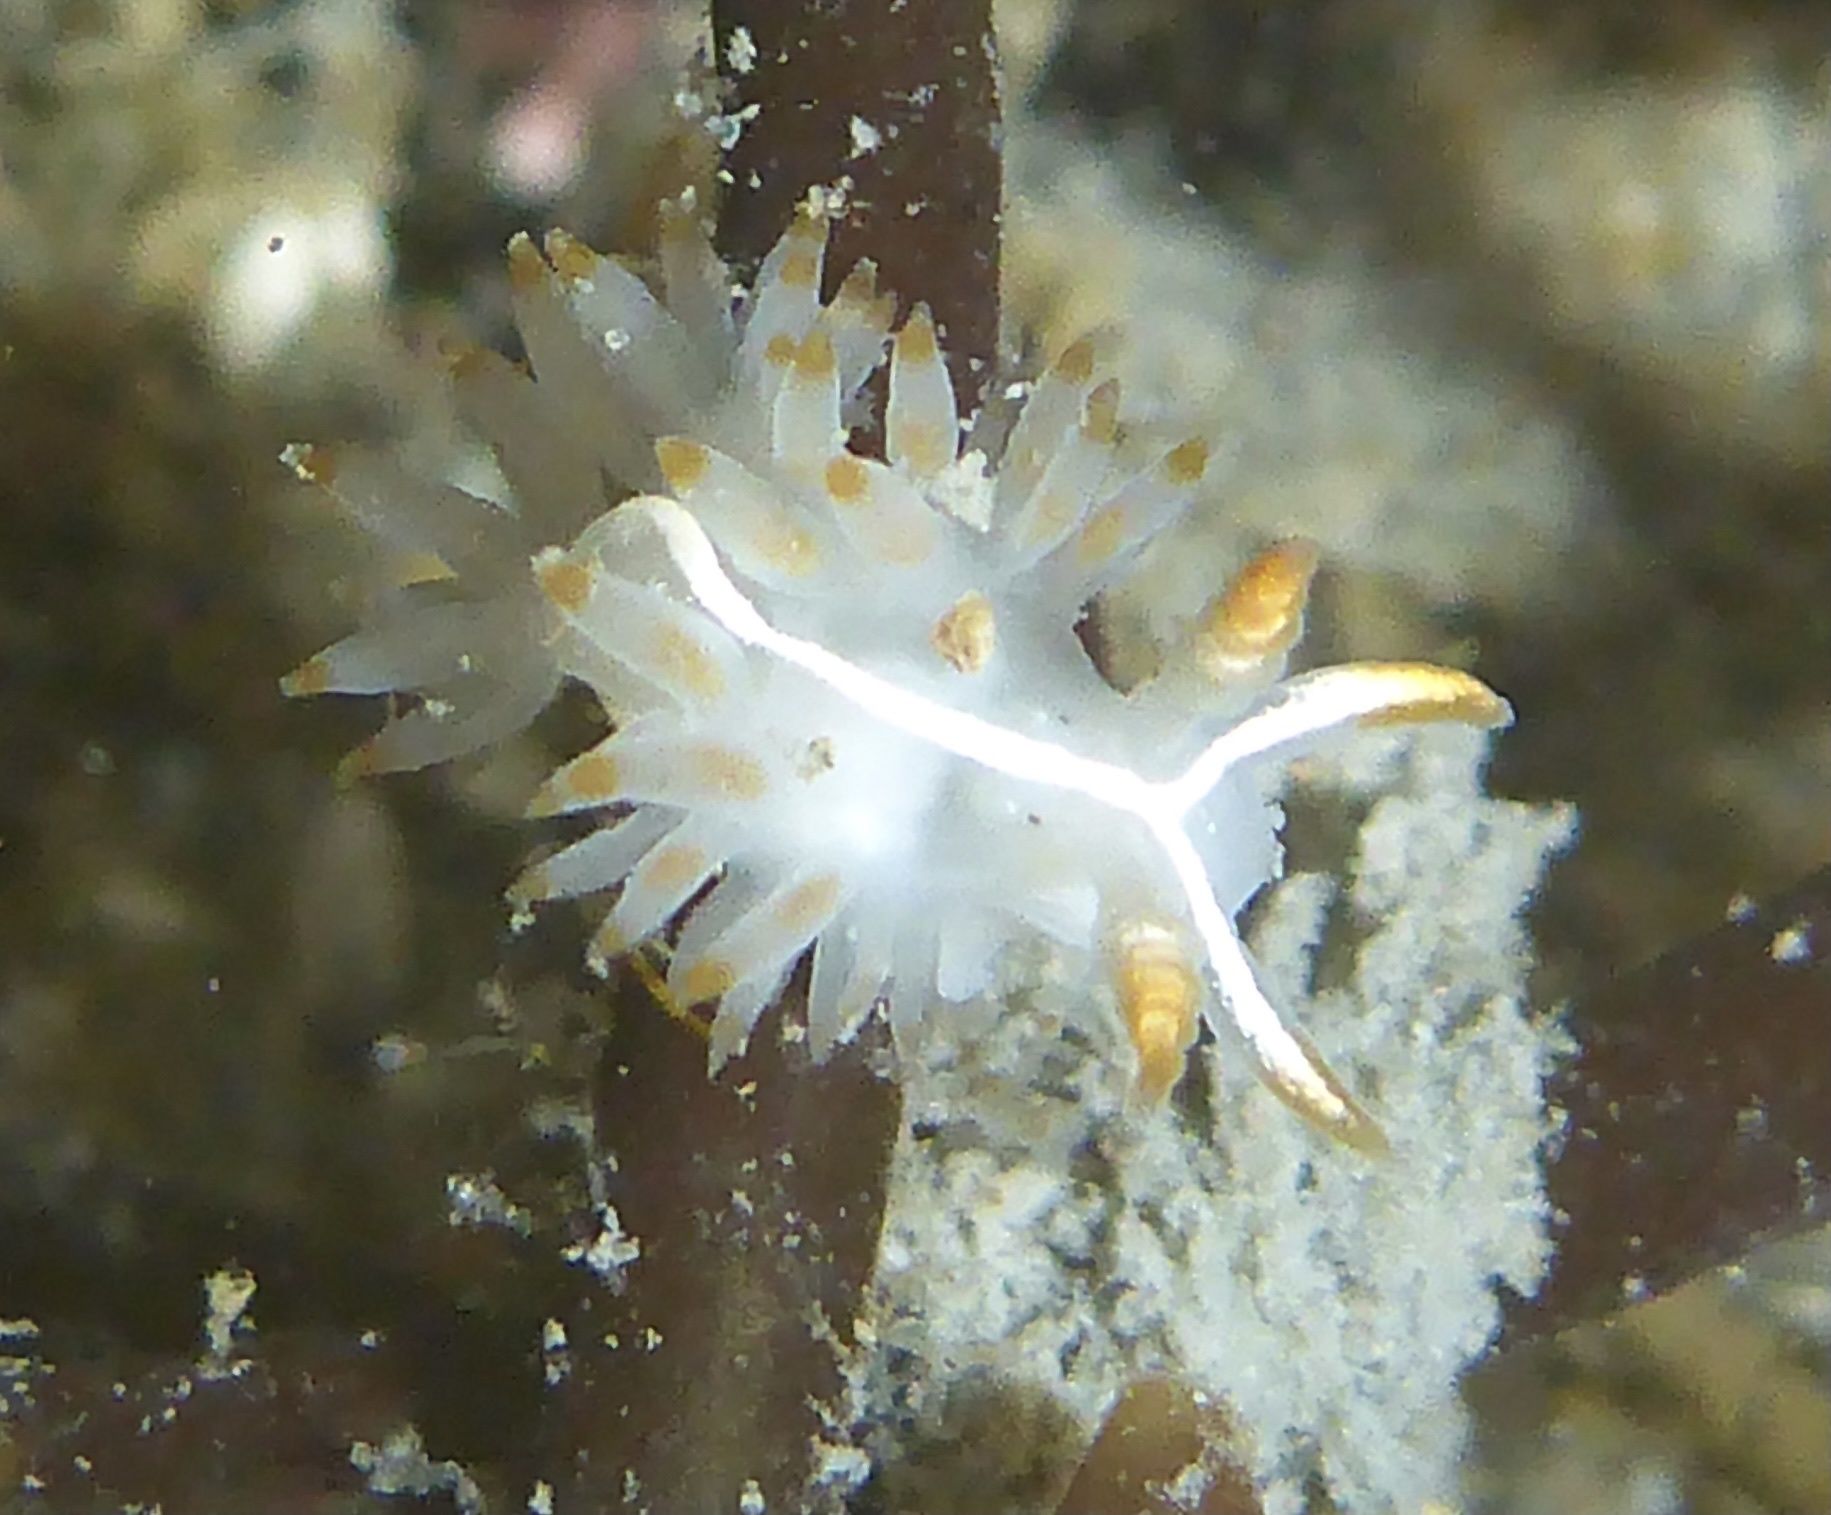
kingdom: Animalia
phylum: Mollusca
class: Gastropoda
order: Nudibranchia
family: Coryphellidae
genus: Coryphella
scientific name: Coryphella trilineata
